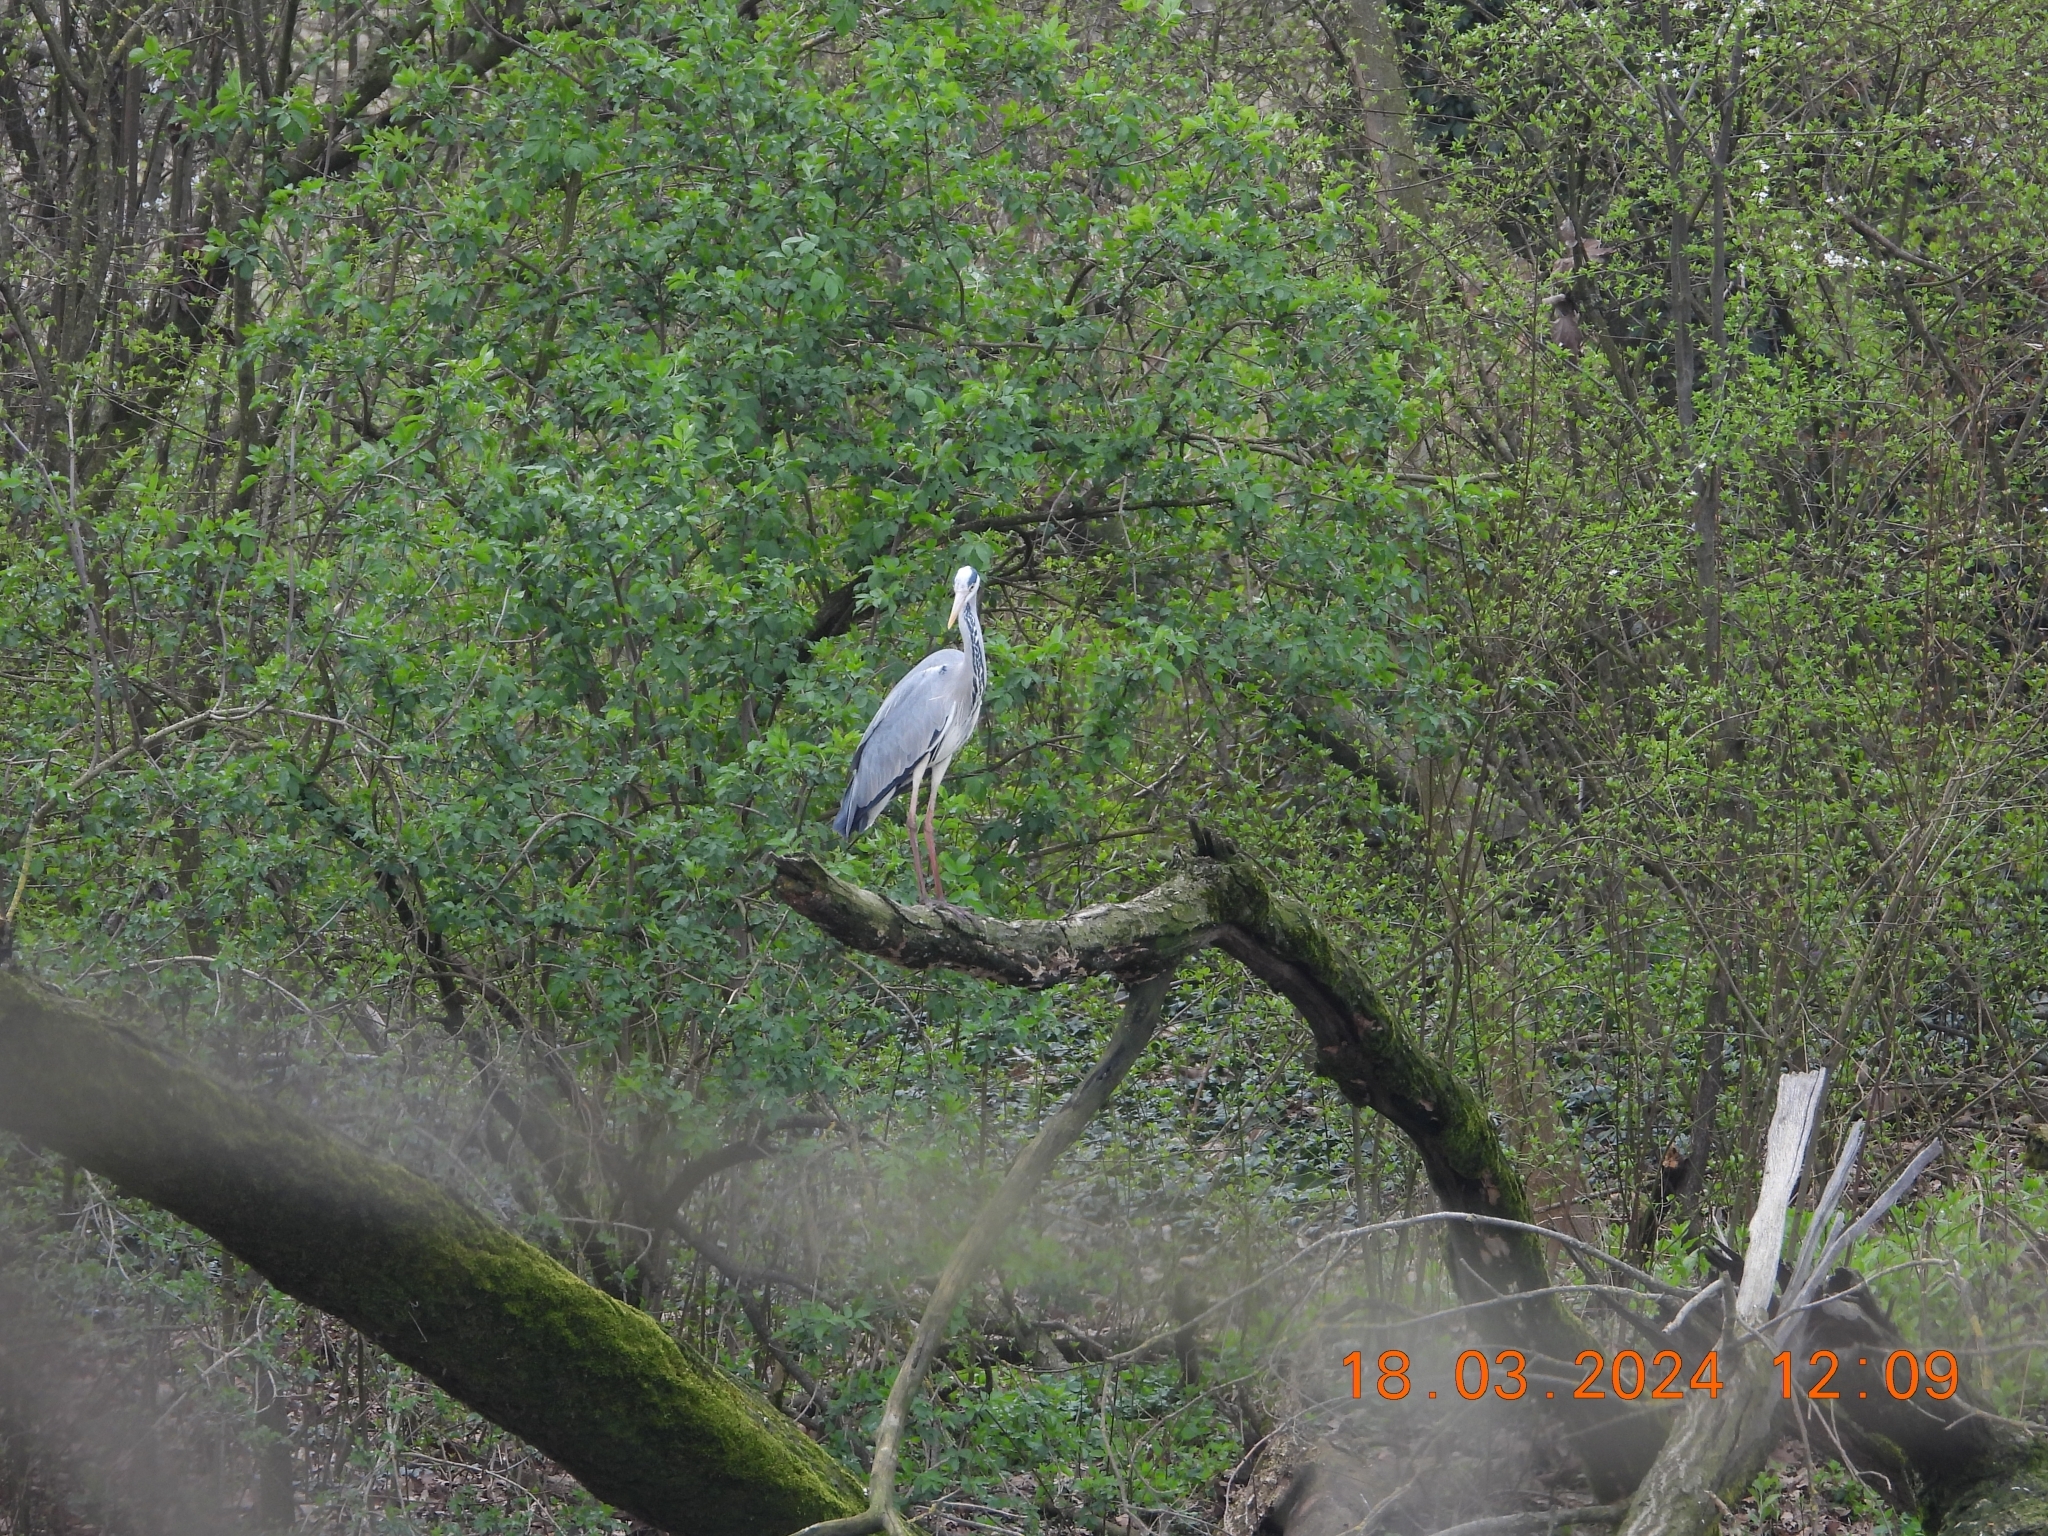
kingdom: Animalia
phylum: Chordata
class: Aves
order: Pelecaniformes
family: Ardeidae
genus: Ardea
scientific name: Ardea cinerea
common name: Grey heron
